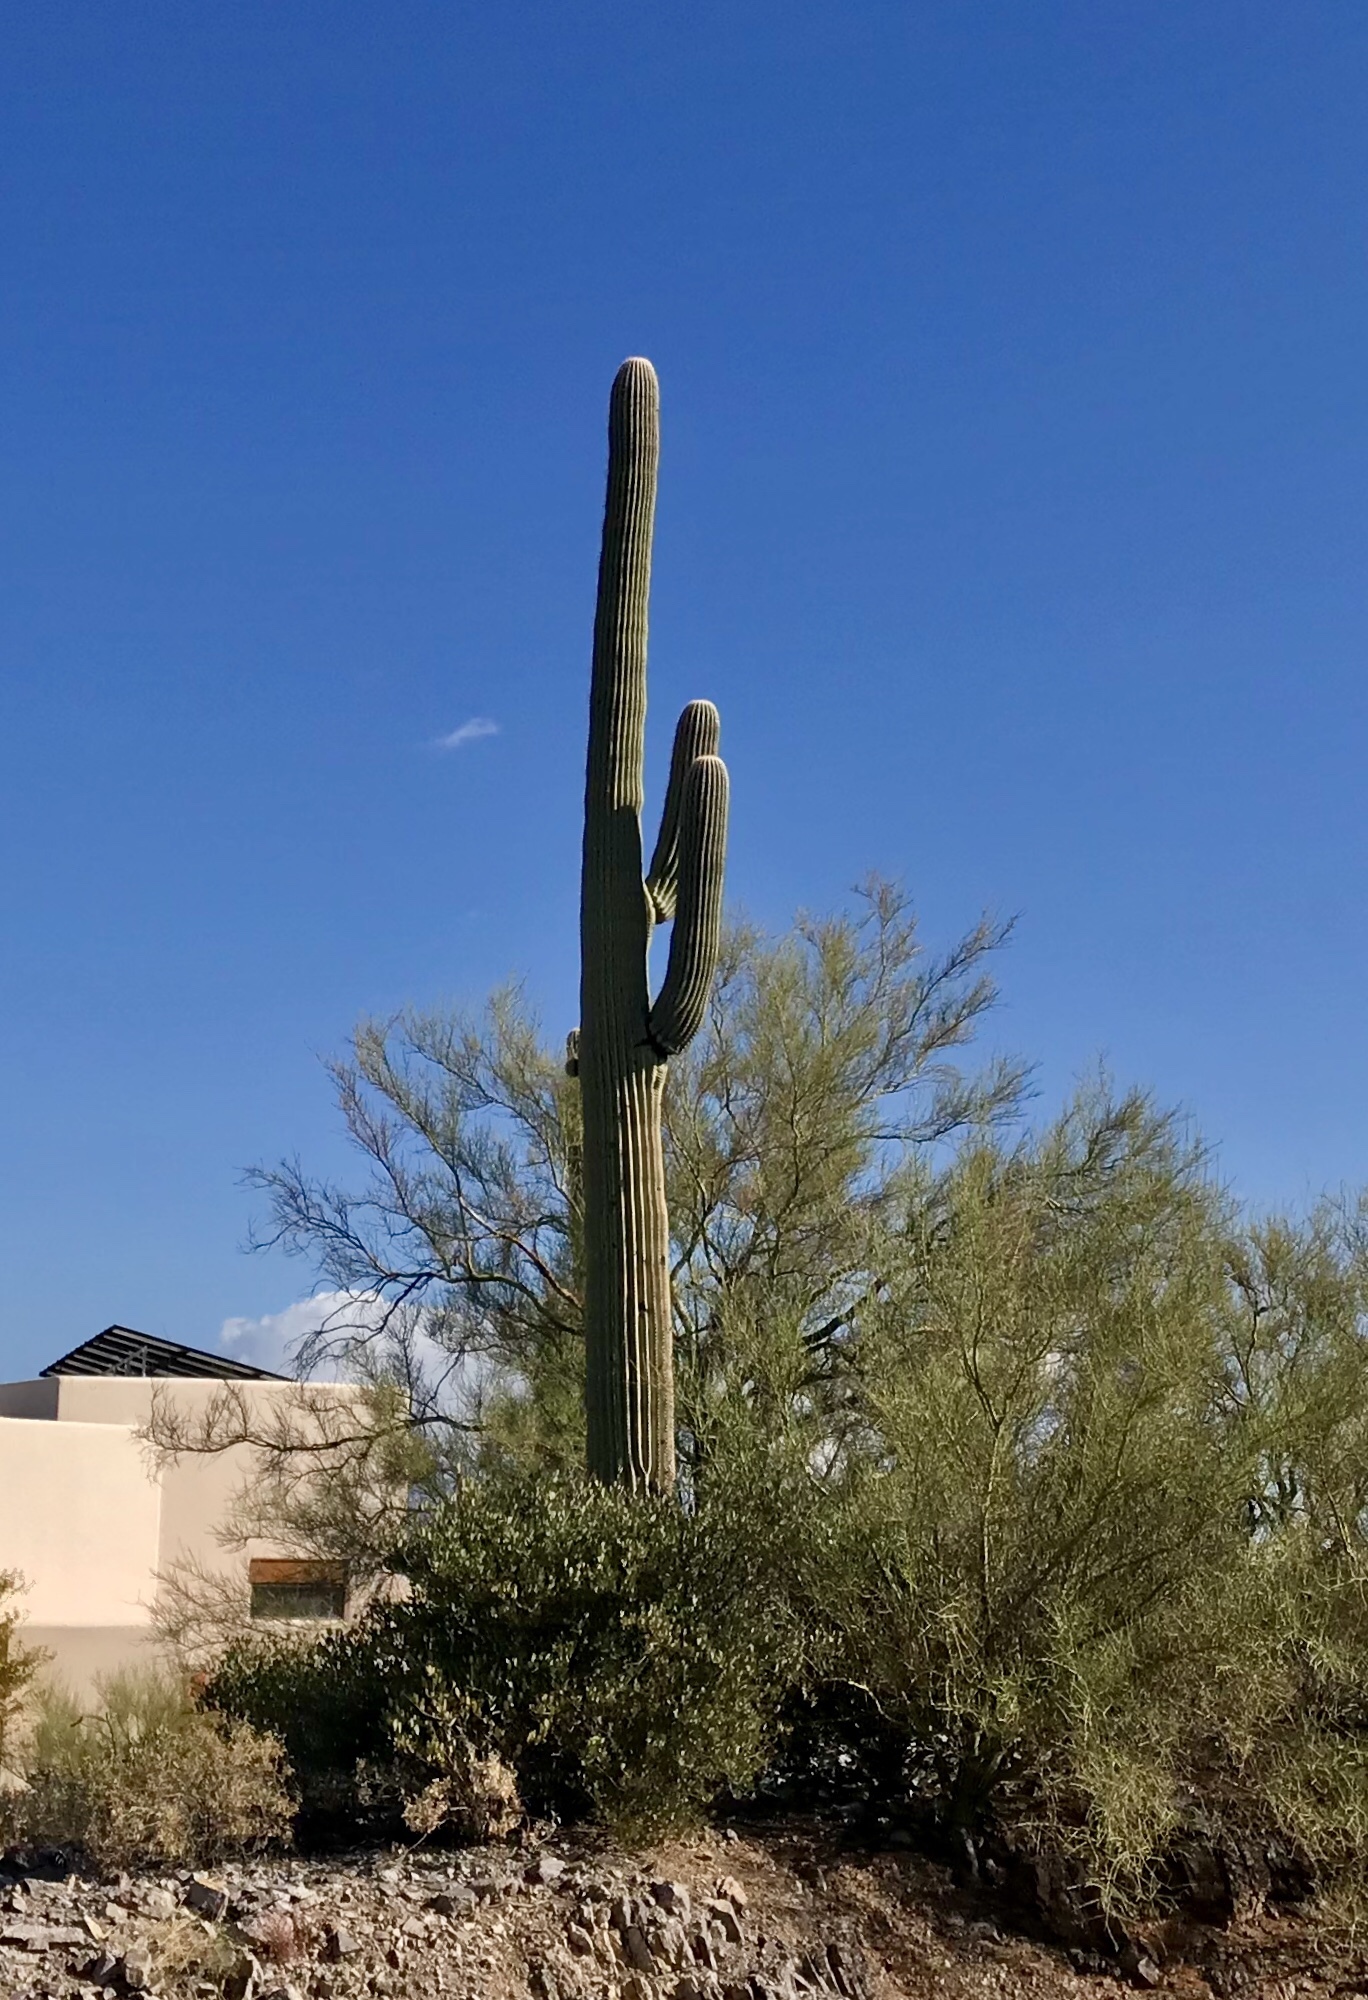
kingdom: Plantae
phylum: Tracheophyta
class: Magnoliopsida
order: Caryophyllales
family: Cactaceae
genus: Carnegiea
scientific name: Carnegiea gigantea
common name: Saguaro
